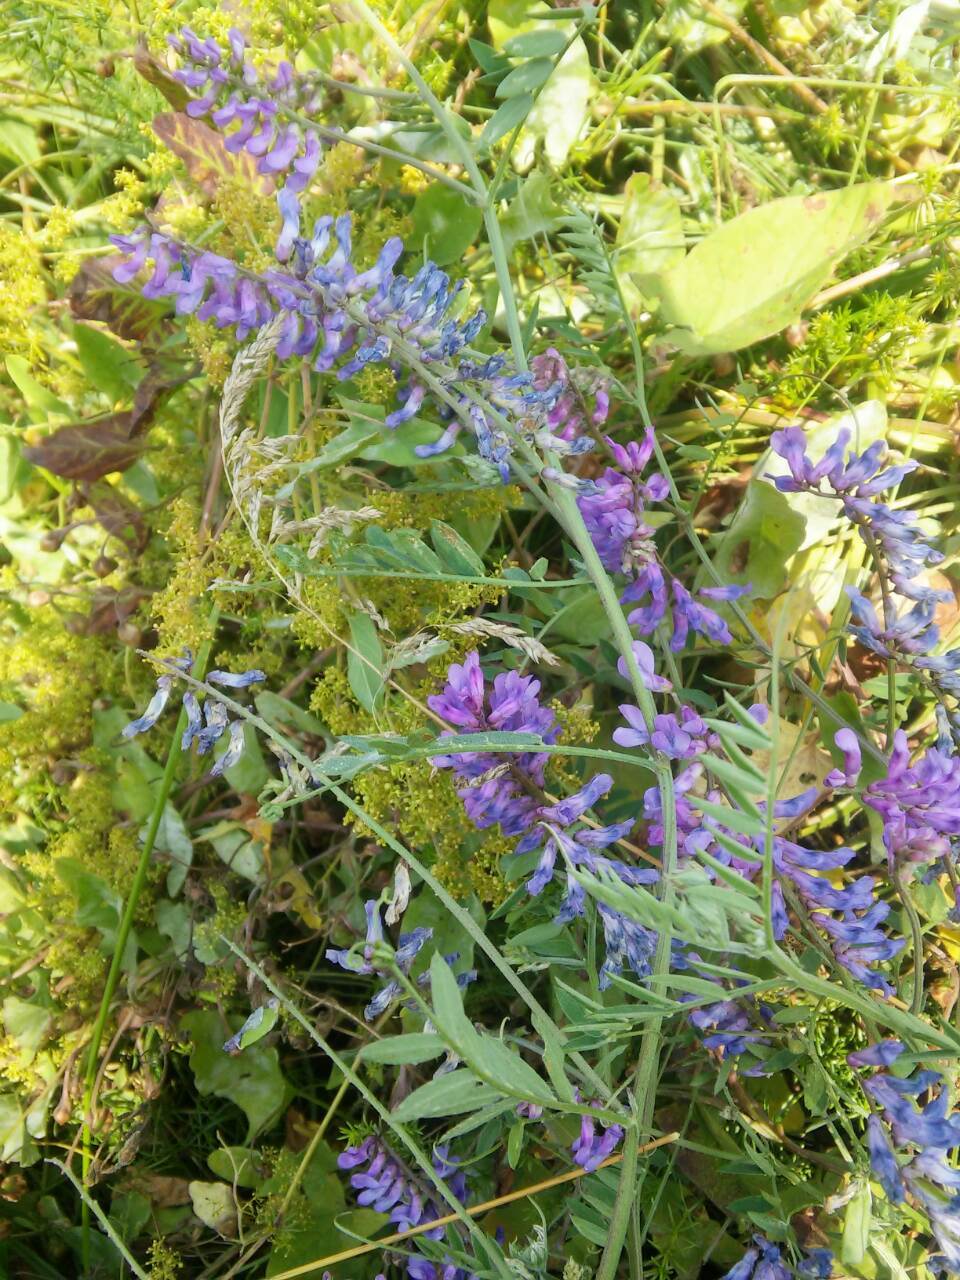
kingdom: Plantae
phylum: Tracheophyta
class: Magnoliopsida
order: Fabales
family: Fabaceae
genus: Vicia
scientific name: Vicia cracca
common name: Bird vetch
